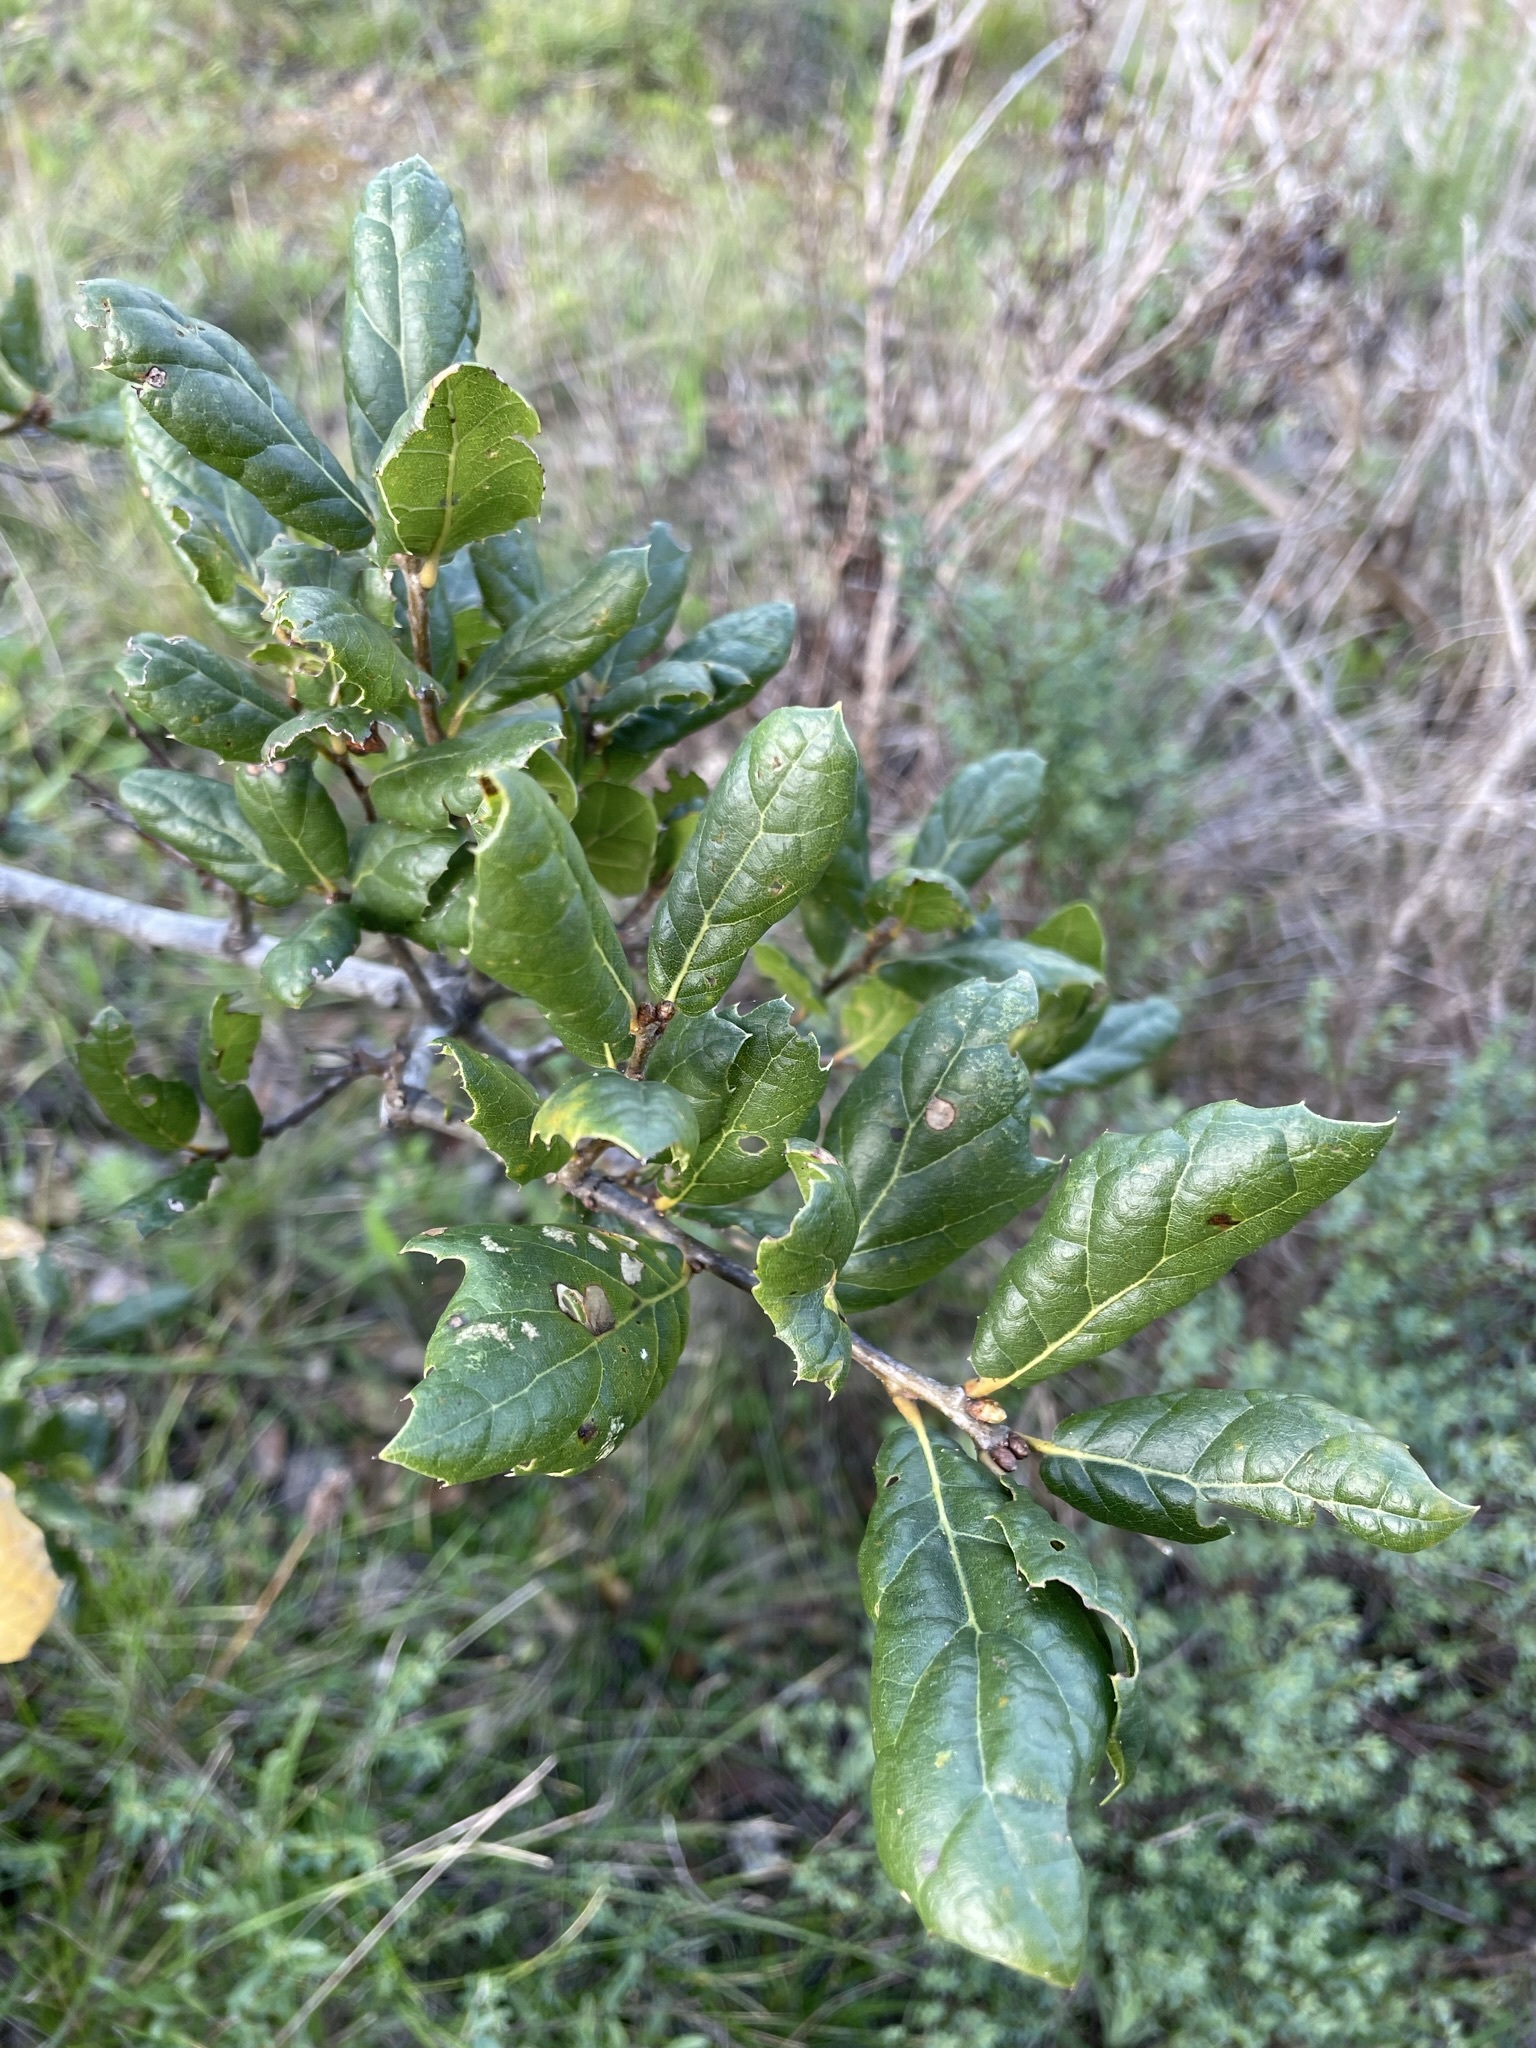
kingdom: Plantae
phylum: Tracheophyta
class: Magnoliopsida
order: Fagales
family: Fagaceae
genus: Quercus
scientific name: Quercus agrifolia
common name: California live oak
